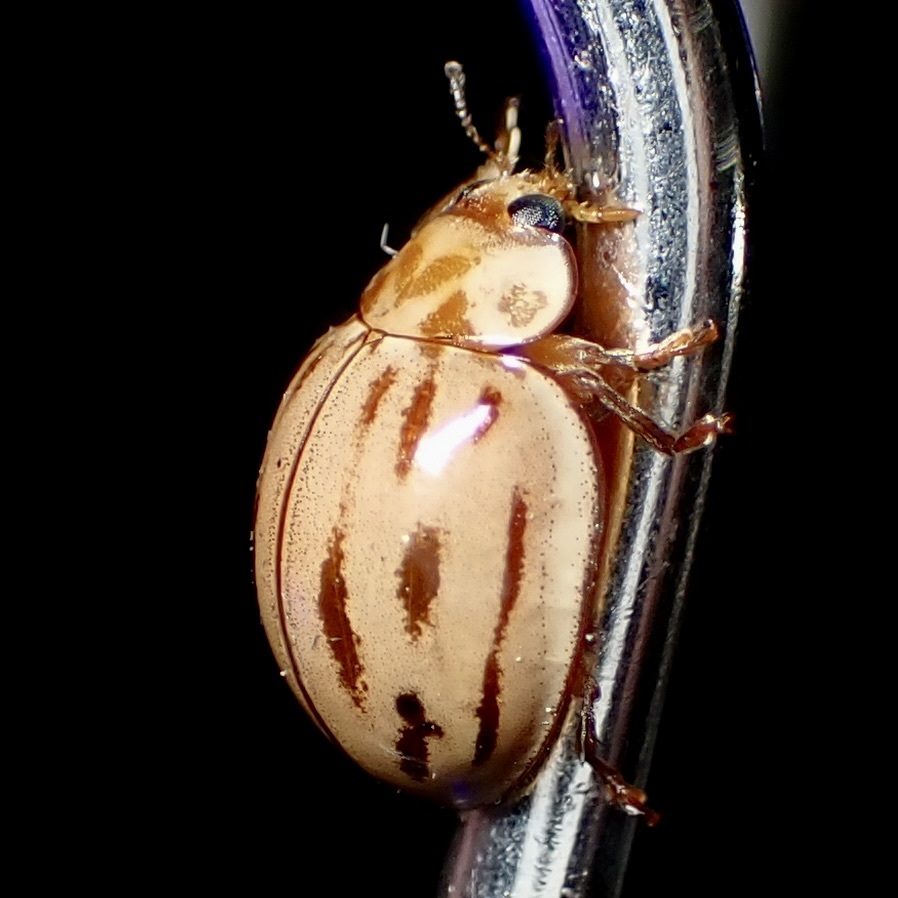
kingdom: Animalia
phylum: Arthropoda
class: Insecta
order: Coleoptera
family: Coccinellidae
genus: Myzia
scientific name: Myzia interrupta
